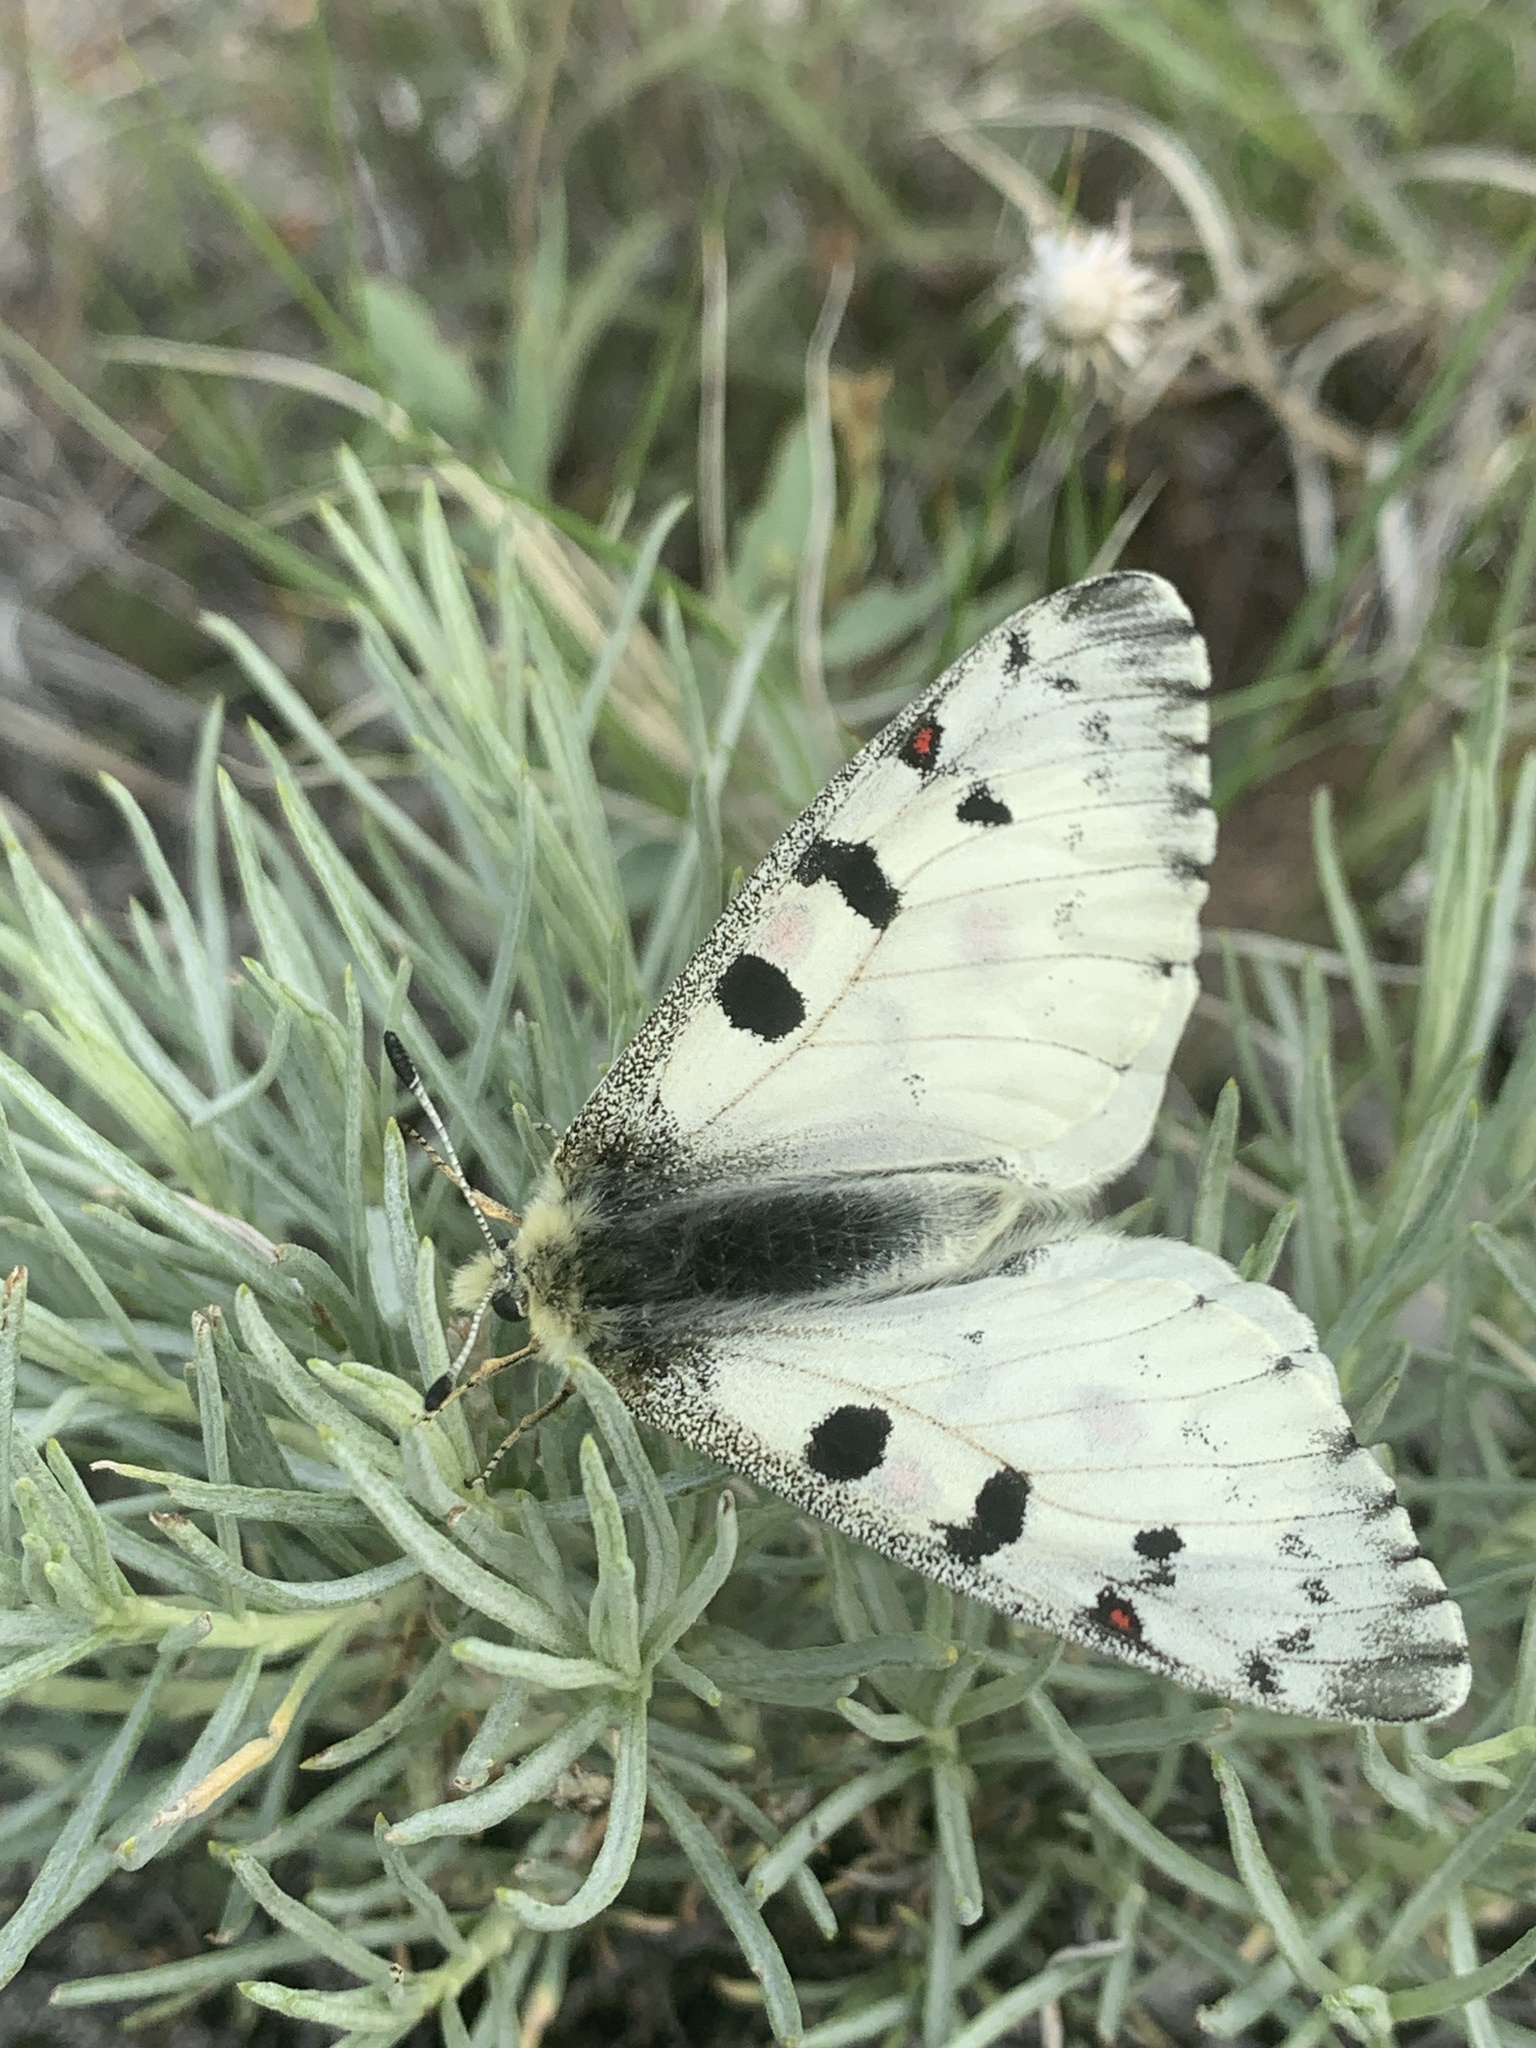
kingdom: Animalia
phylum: Arthropoda
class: Insecta
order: Lepidoptera
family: Papilionidae
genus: Parnassius
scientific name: Parnassius smintheus
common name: Mountain parnassian
